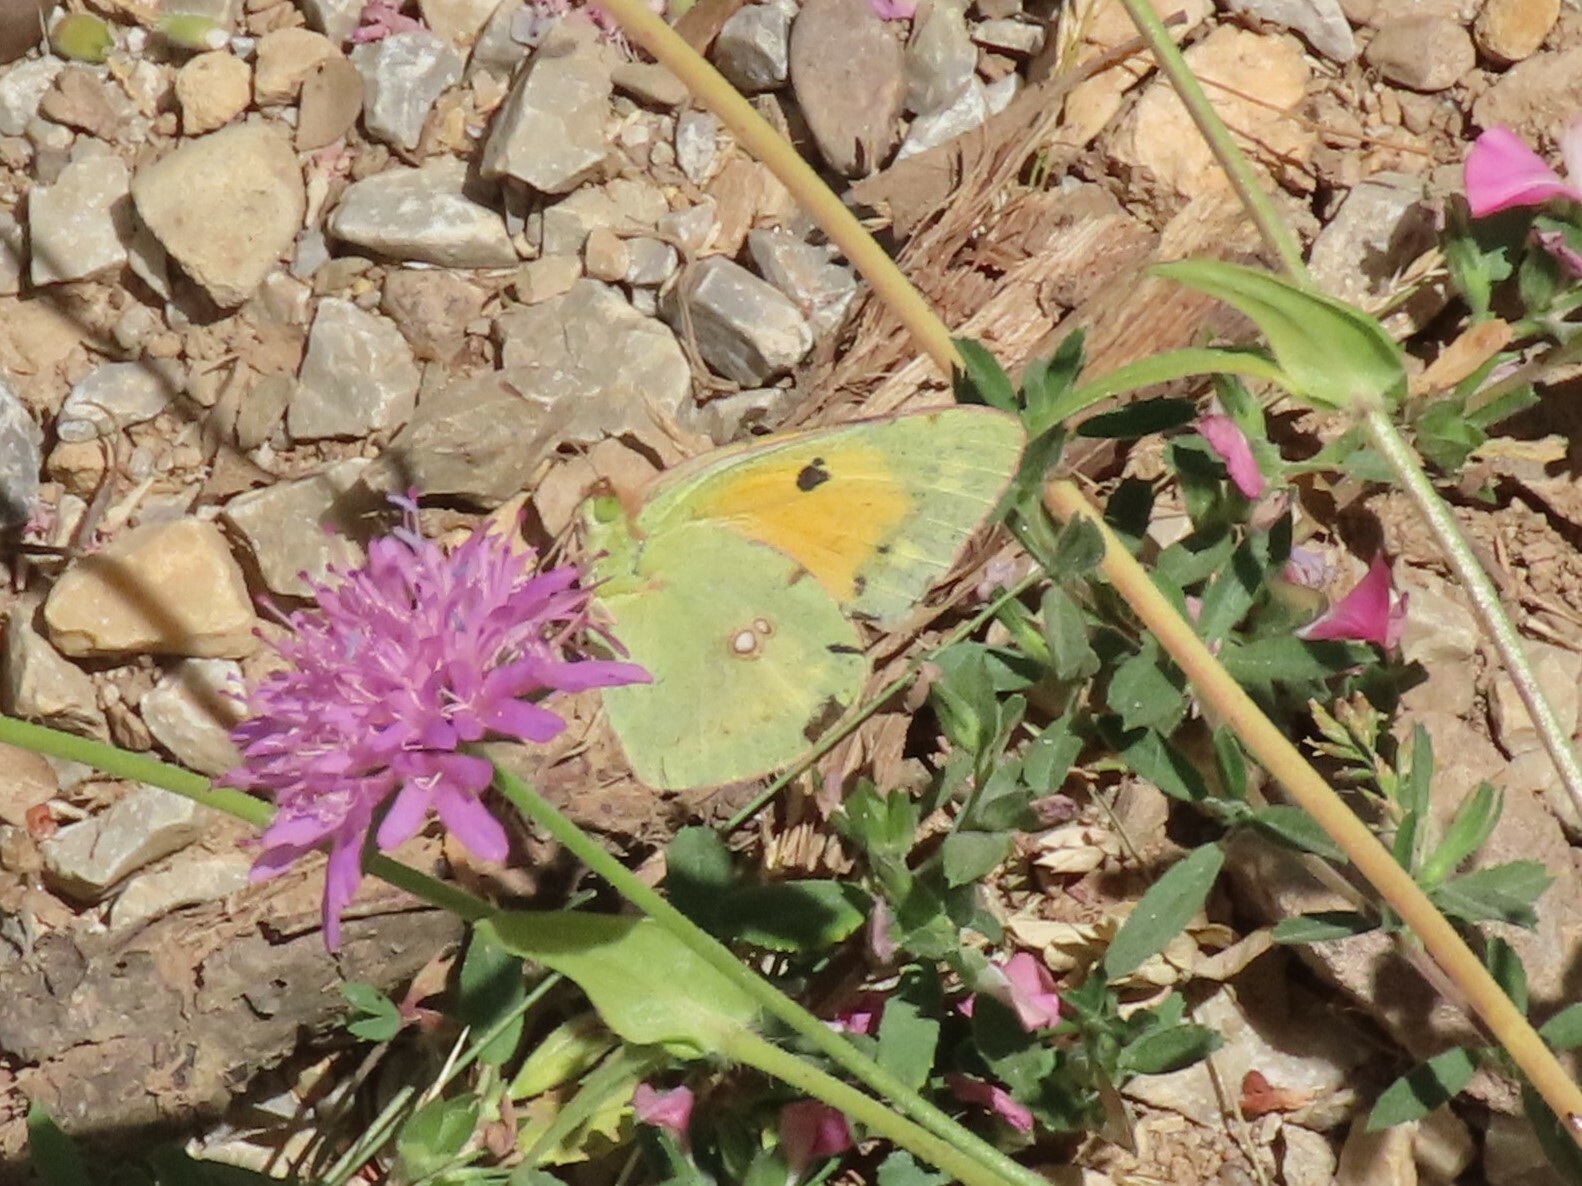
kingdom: Animalia
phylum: Arthropoda
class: Insecta
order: Lepidoptera
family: Pieridae
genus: Colias
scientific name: Colias croceus
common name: Clouded yellow
